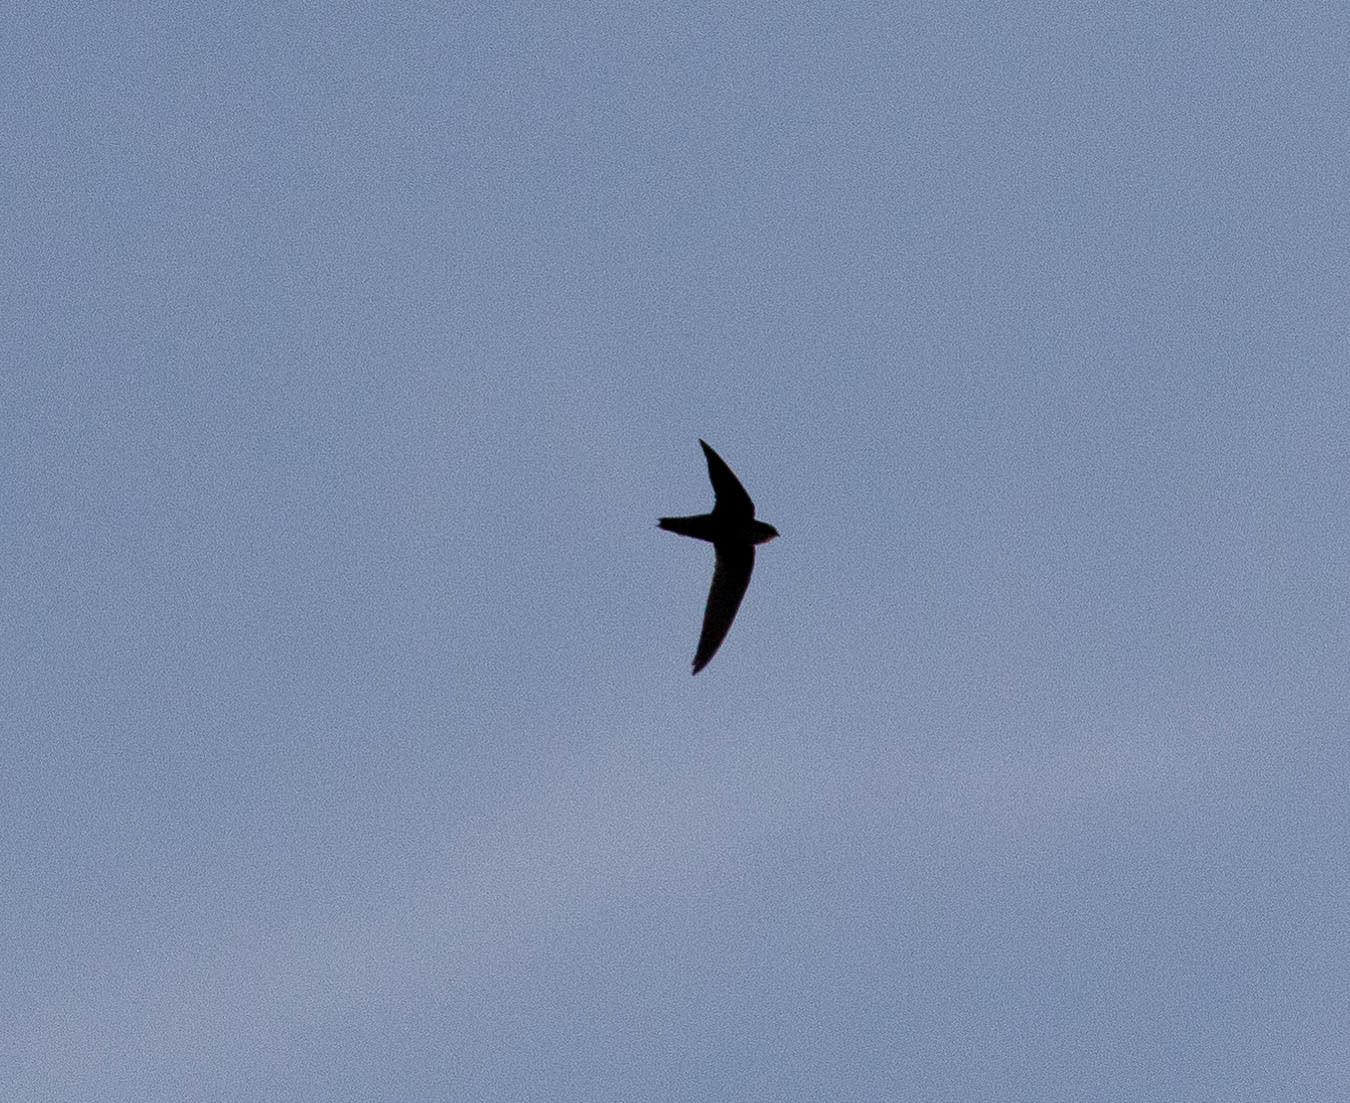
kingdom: Animalia
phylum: Chordata
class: Aves
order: Apodiformes
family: Apodidae
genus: Chaetura
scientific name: Chaetura pelagica
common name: Chimney swift
